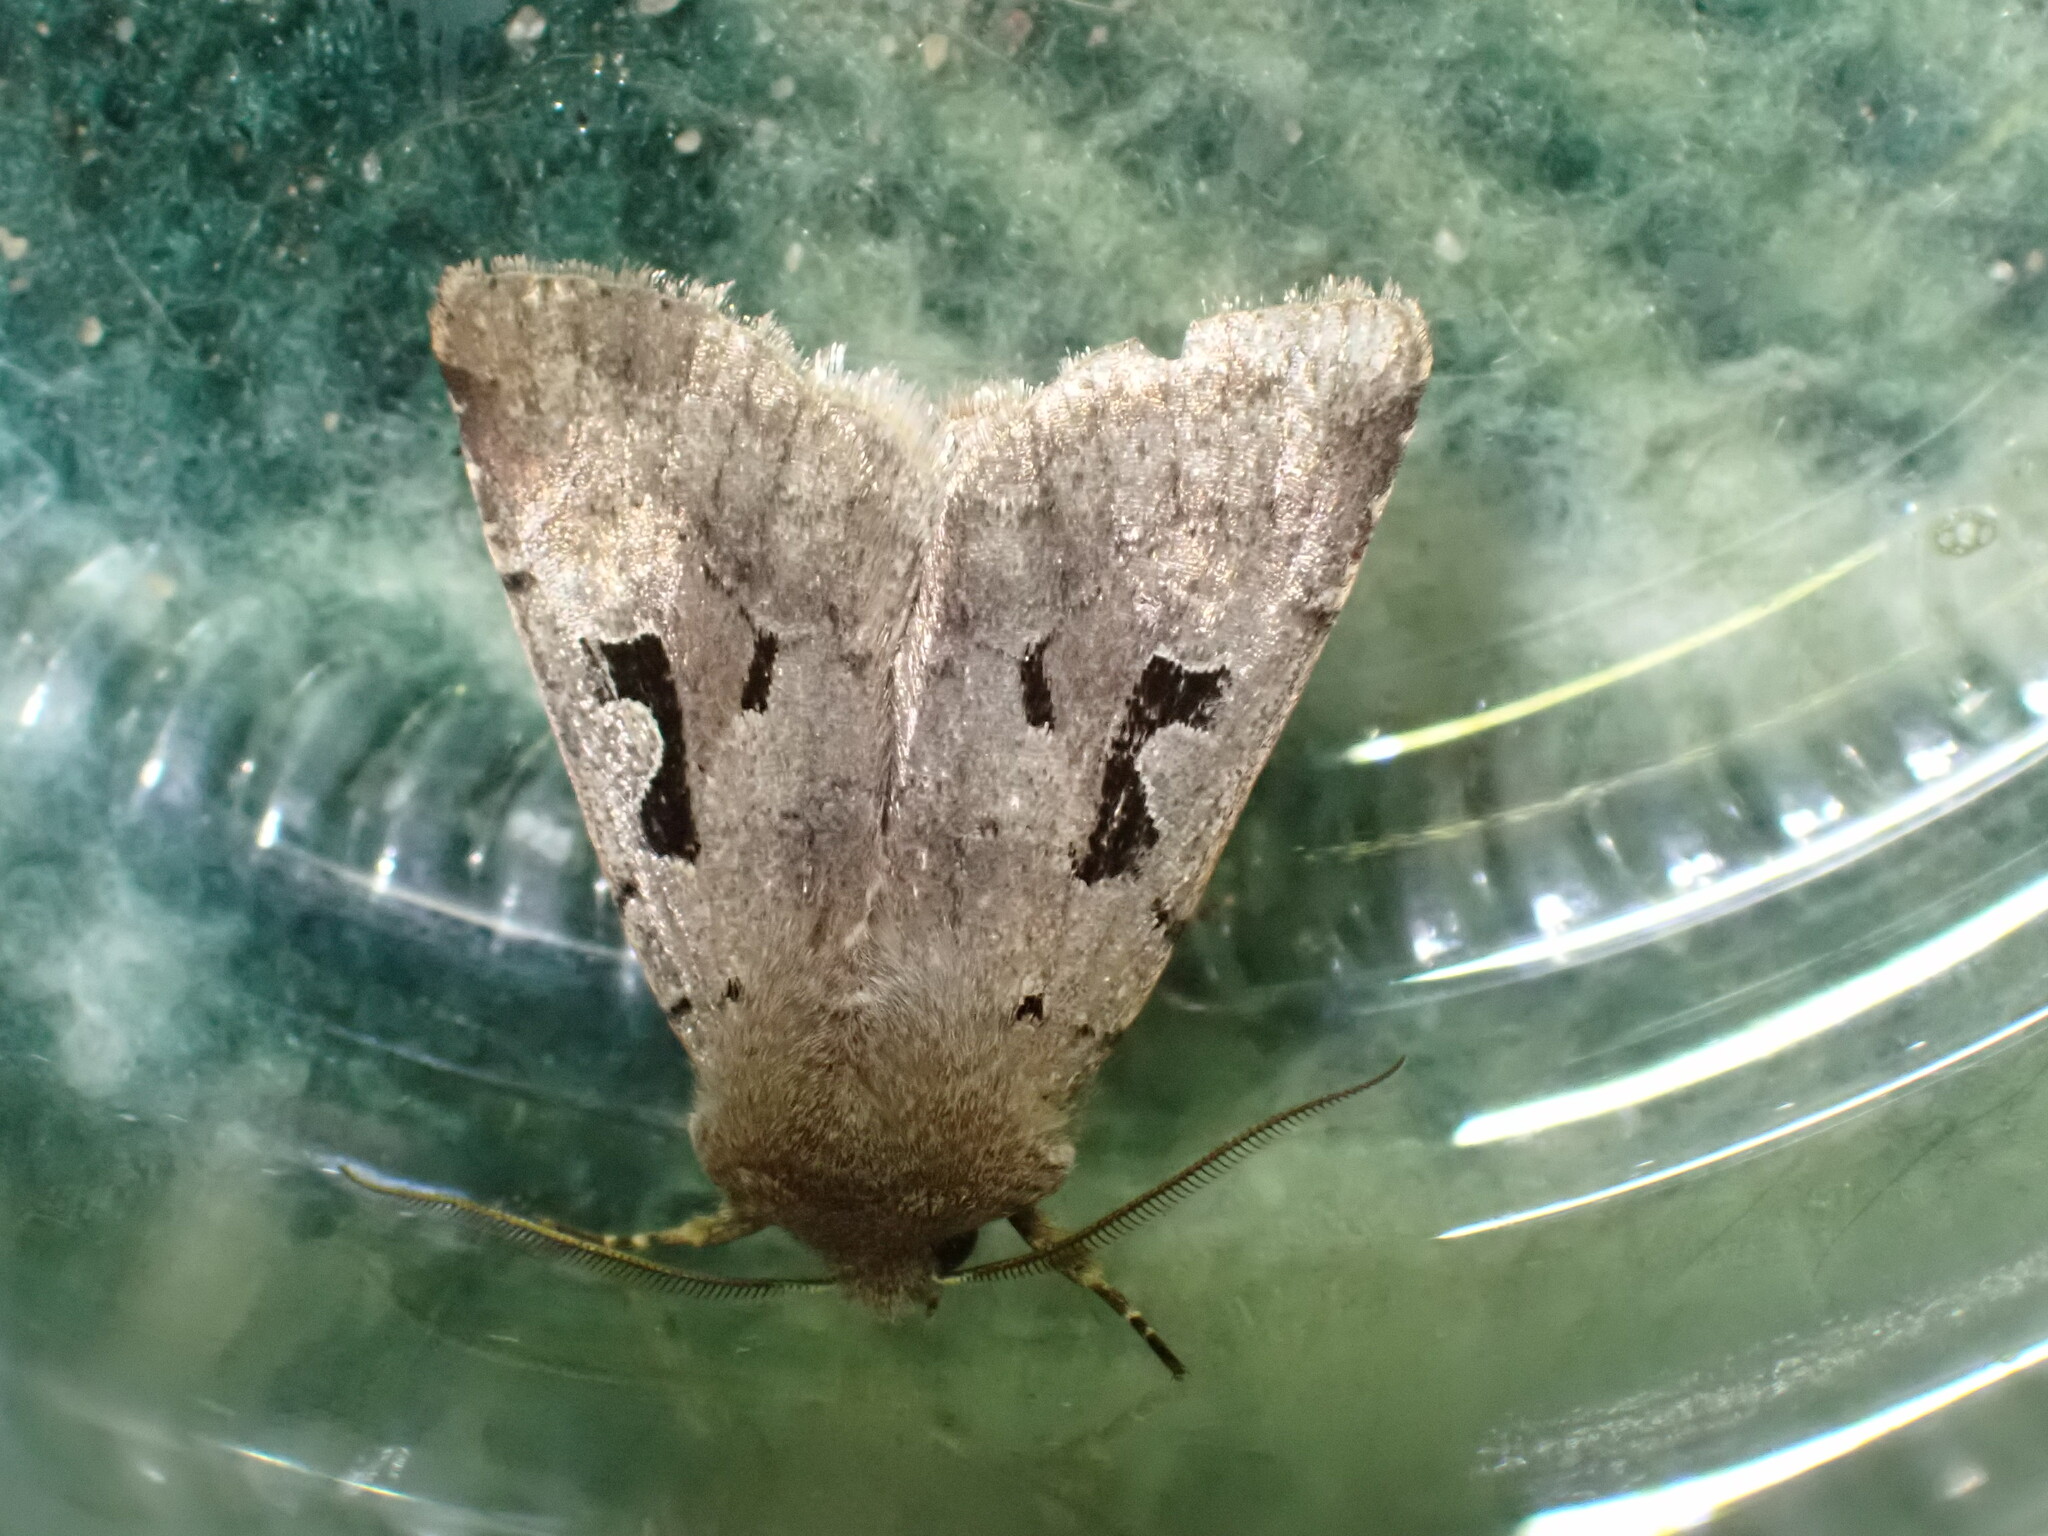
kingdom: Animalia
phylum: Arthropoda
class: Insecta
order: Lepidoptera
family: Noctuidae
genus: Orthosia
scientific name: Orthosia gothica
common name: Hebrew character
